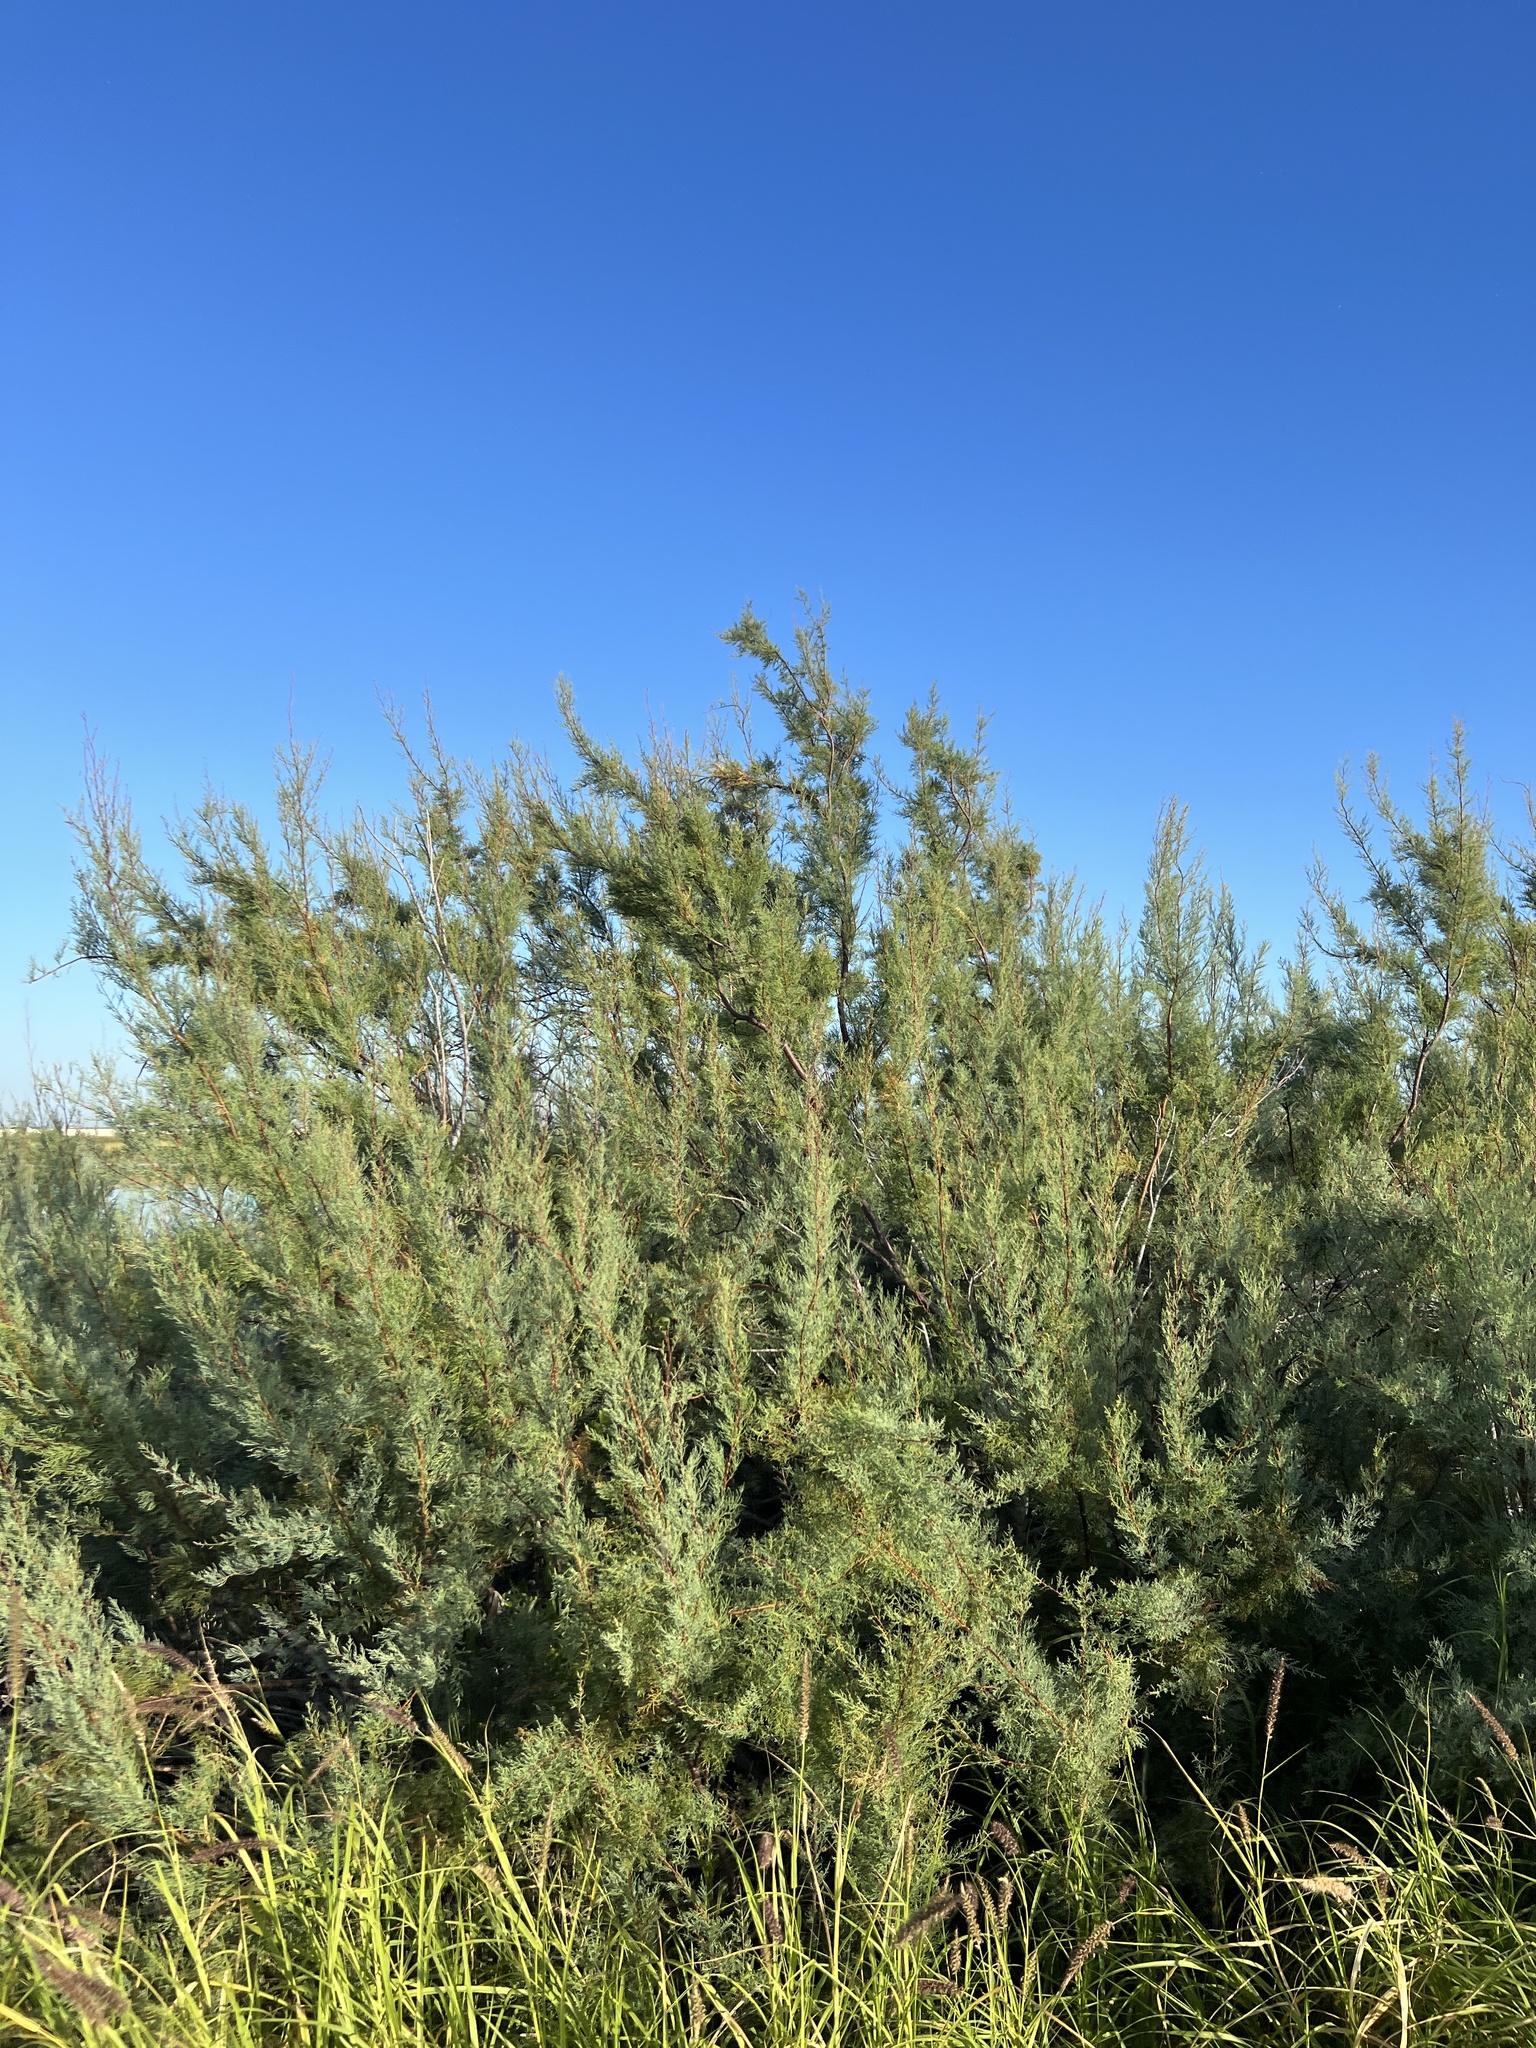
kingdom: Plantae
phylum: Tracheophyta
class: Magnoliopsida
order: Caryophyllales
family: Tamaricaceae
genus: Tamarix
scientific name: Tamarix
